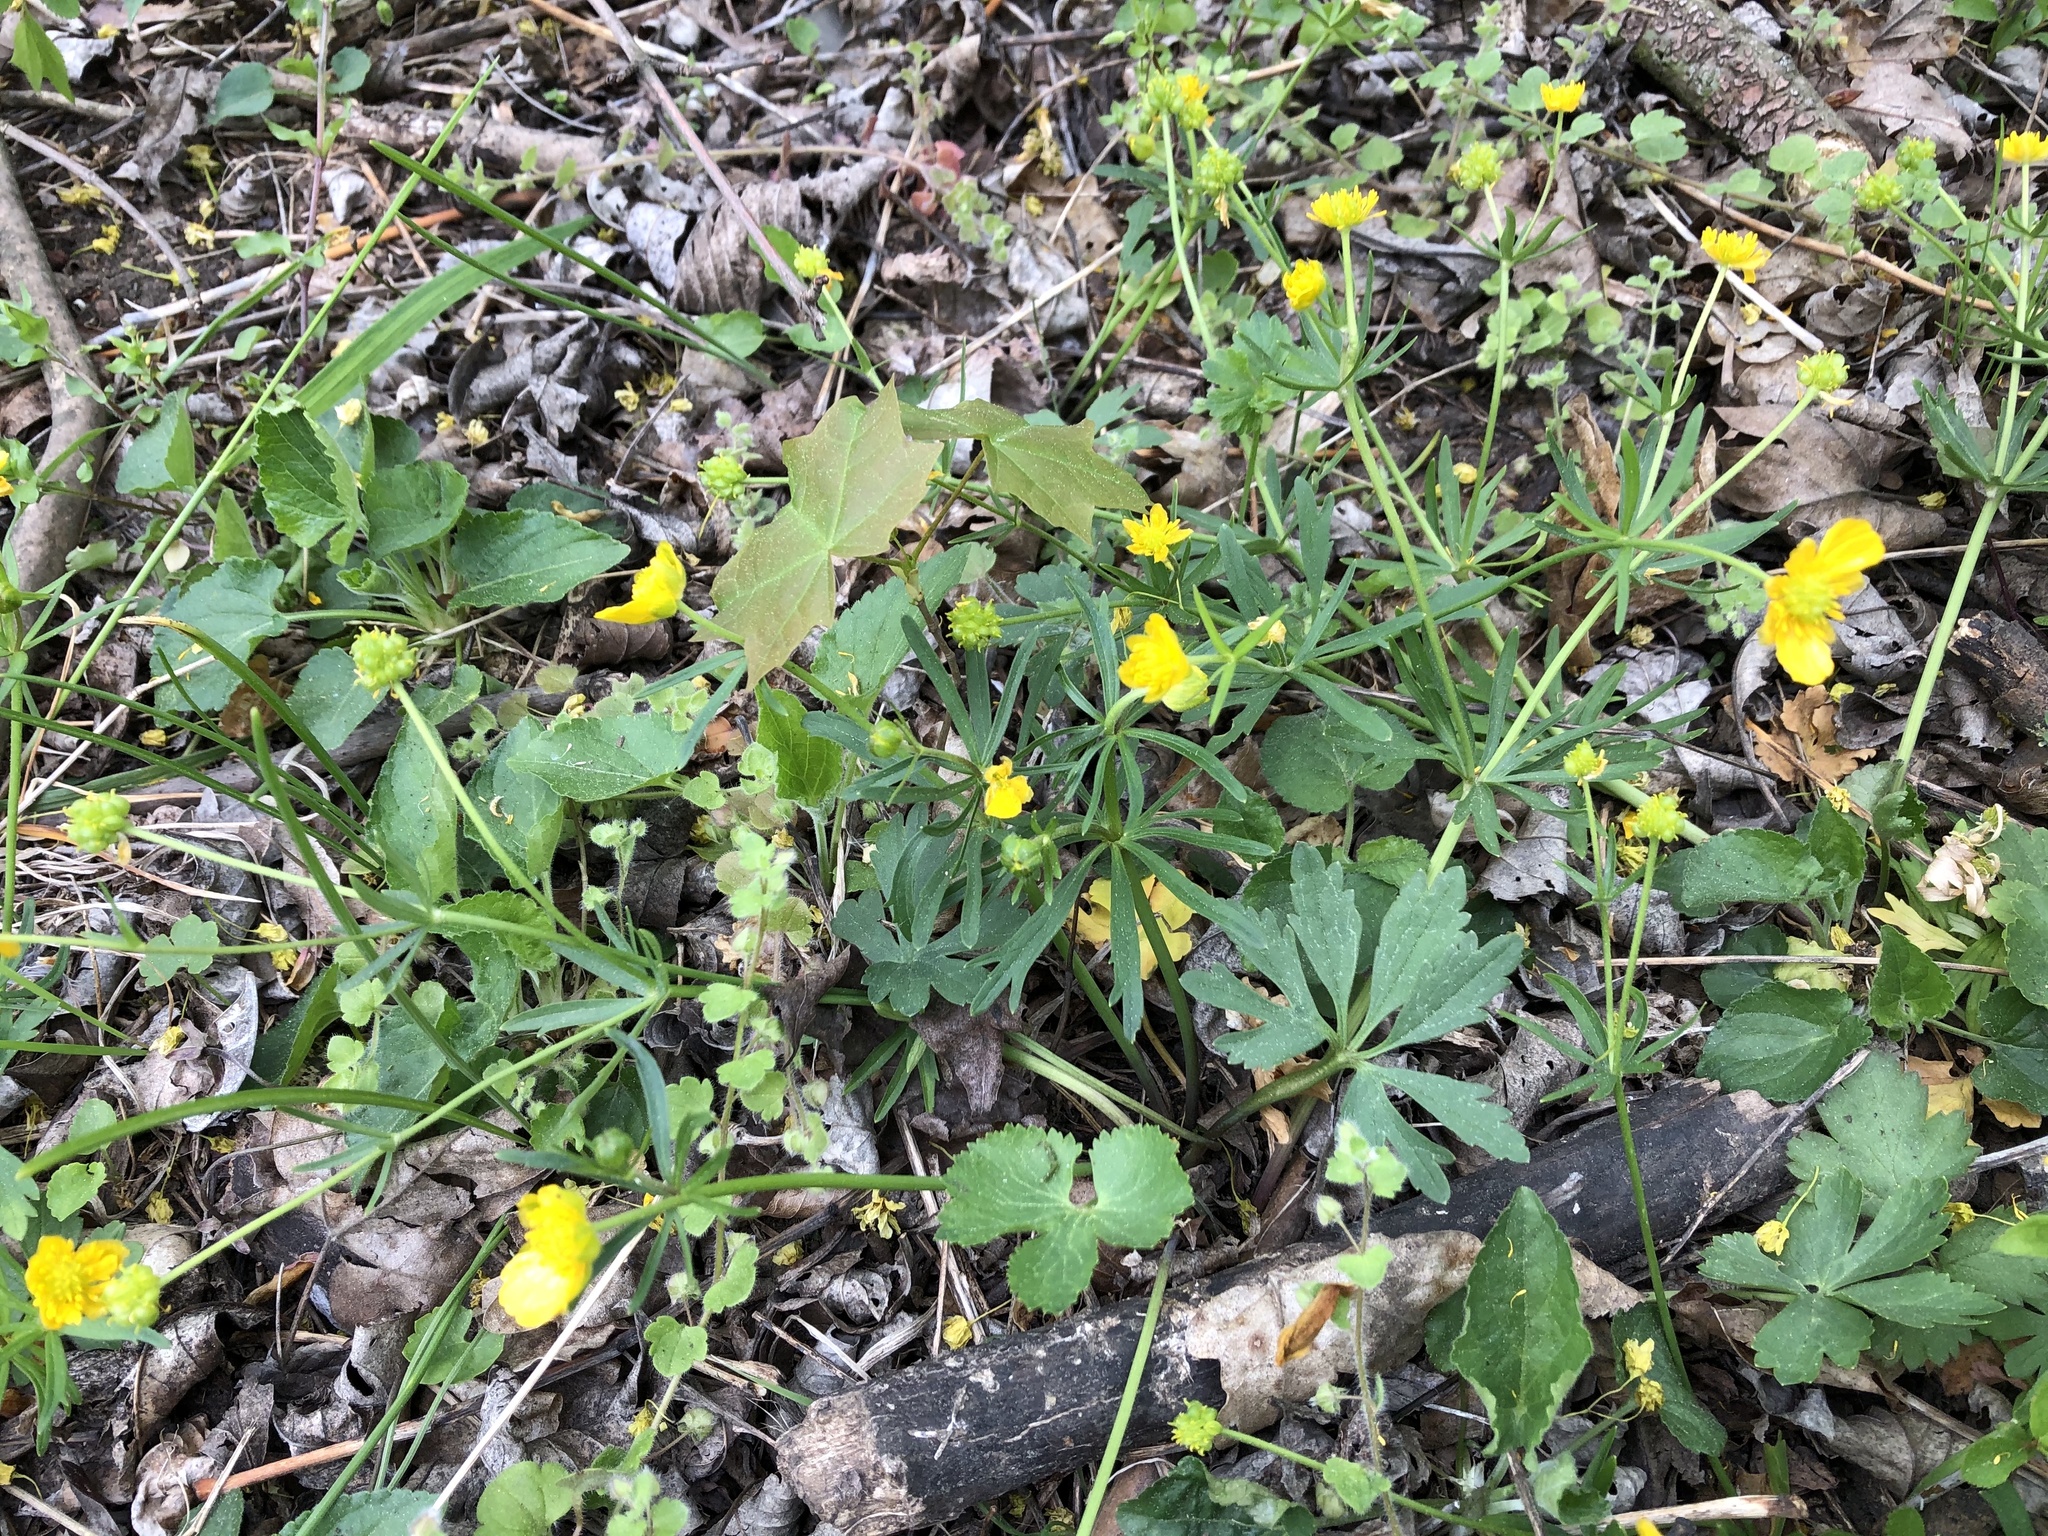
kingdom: Plantae
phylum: Tracheophyta
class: Magnoliopsida
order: Ranunculales
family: Ranunculaceae
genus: Ranunculus
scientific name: Ranunculus auricomus
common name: Goldilocks buttercup
